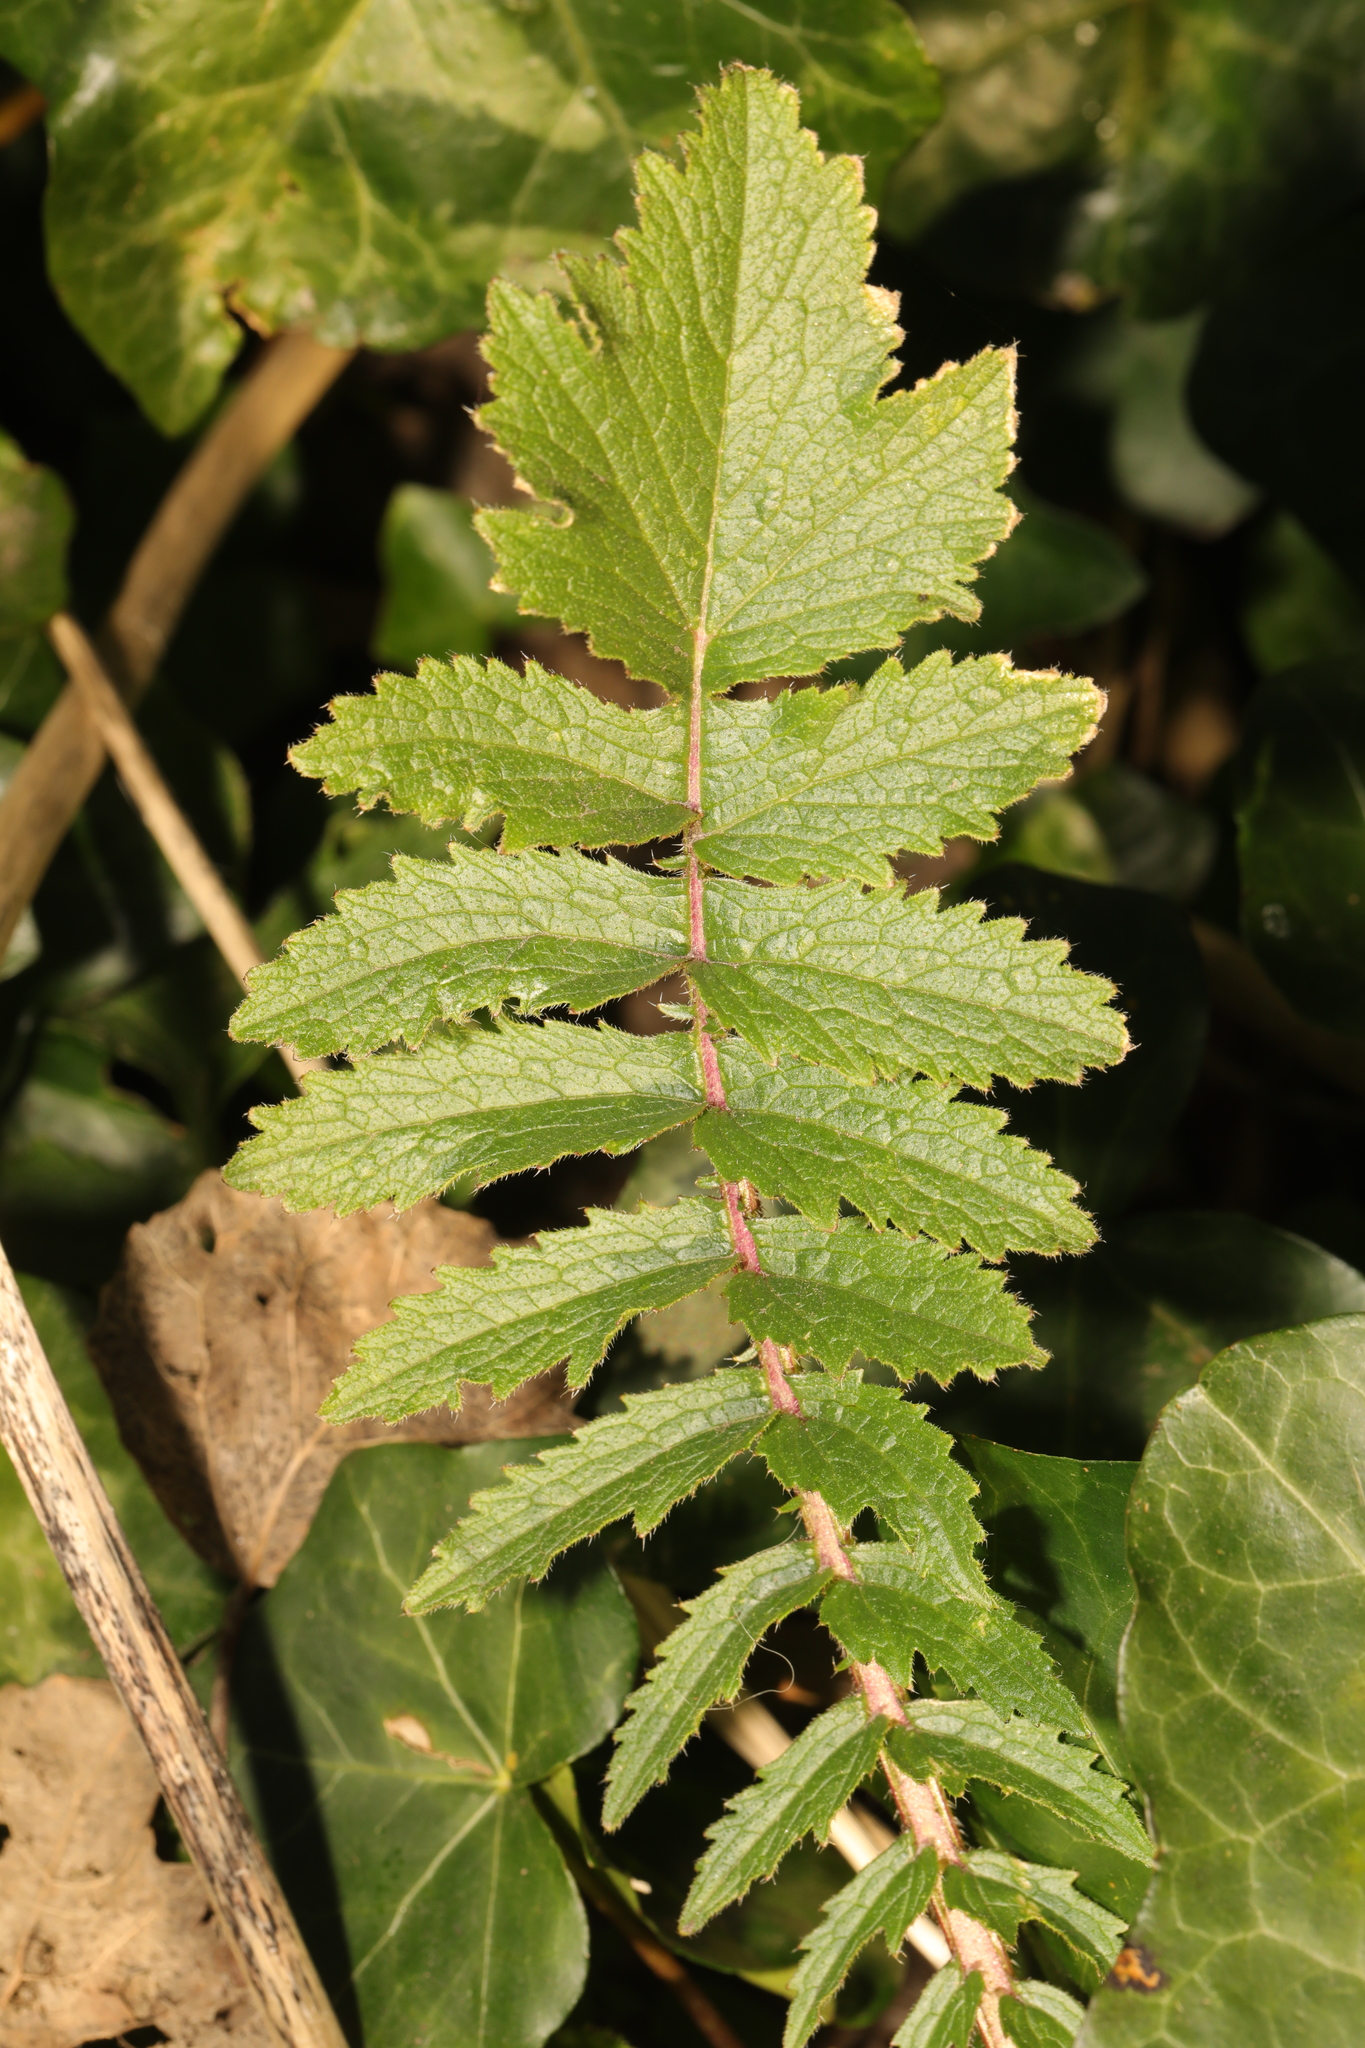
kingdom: Plantae
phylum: Tracheophyta
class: Magnoliopsida
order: Brassicales
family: Brassicaceae
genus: Raphanus
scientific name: Raphanus raphanistrum
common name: Wild radish
